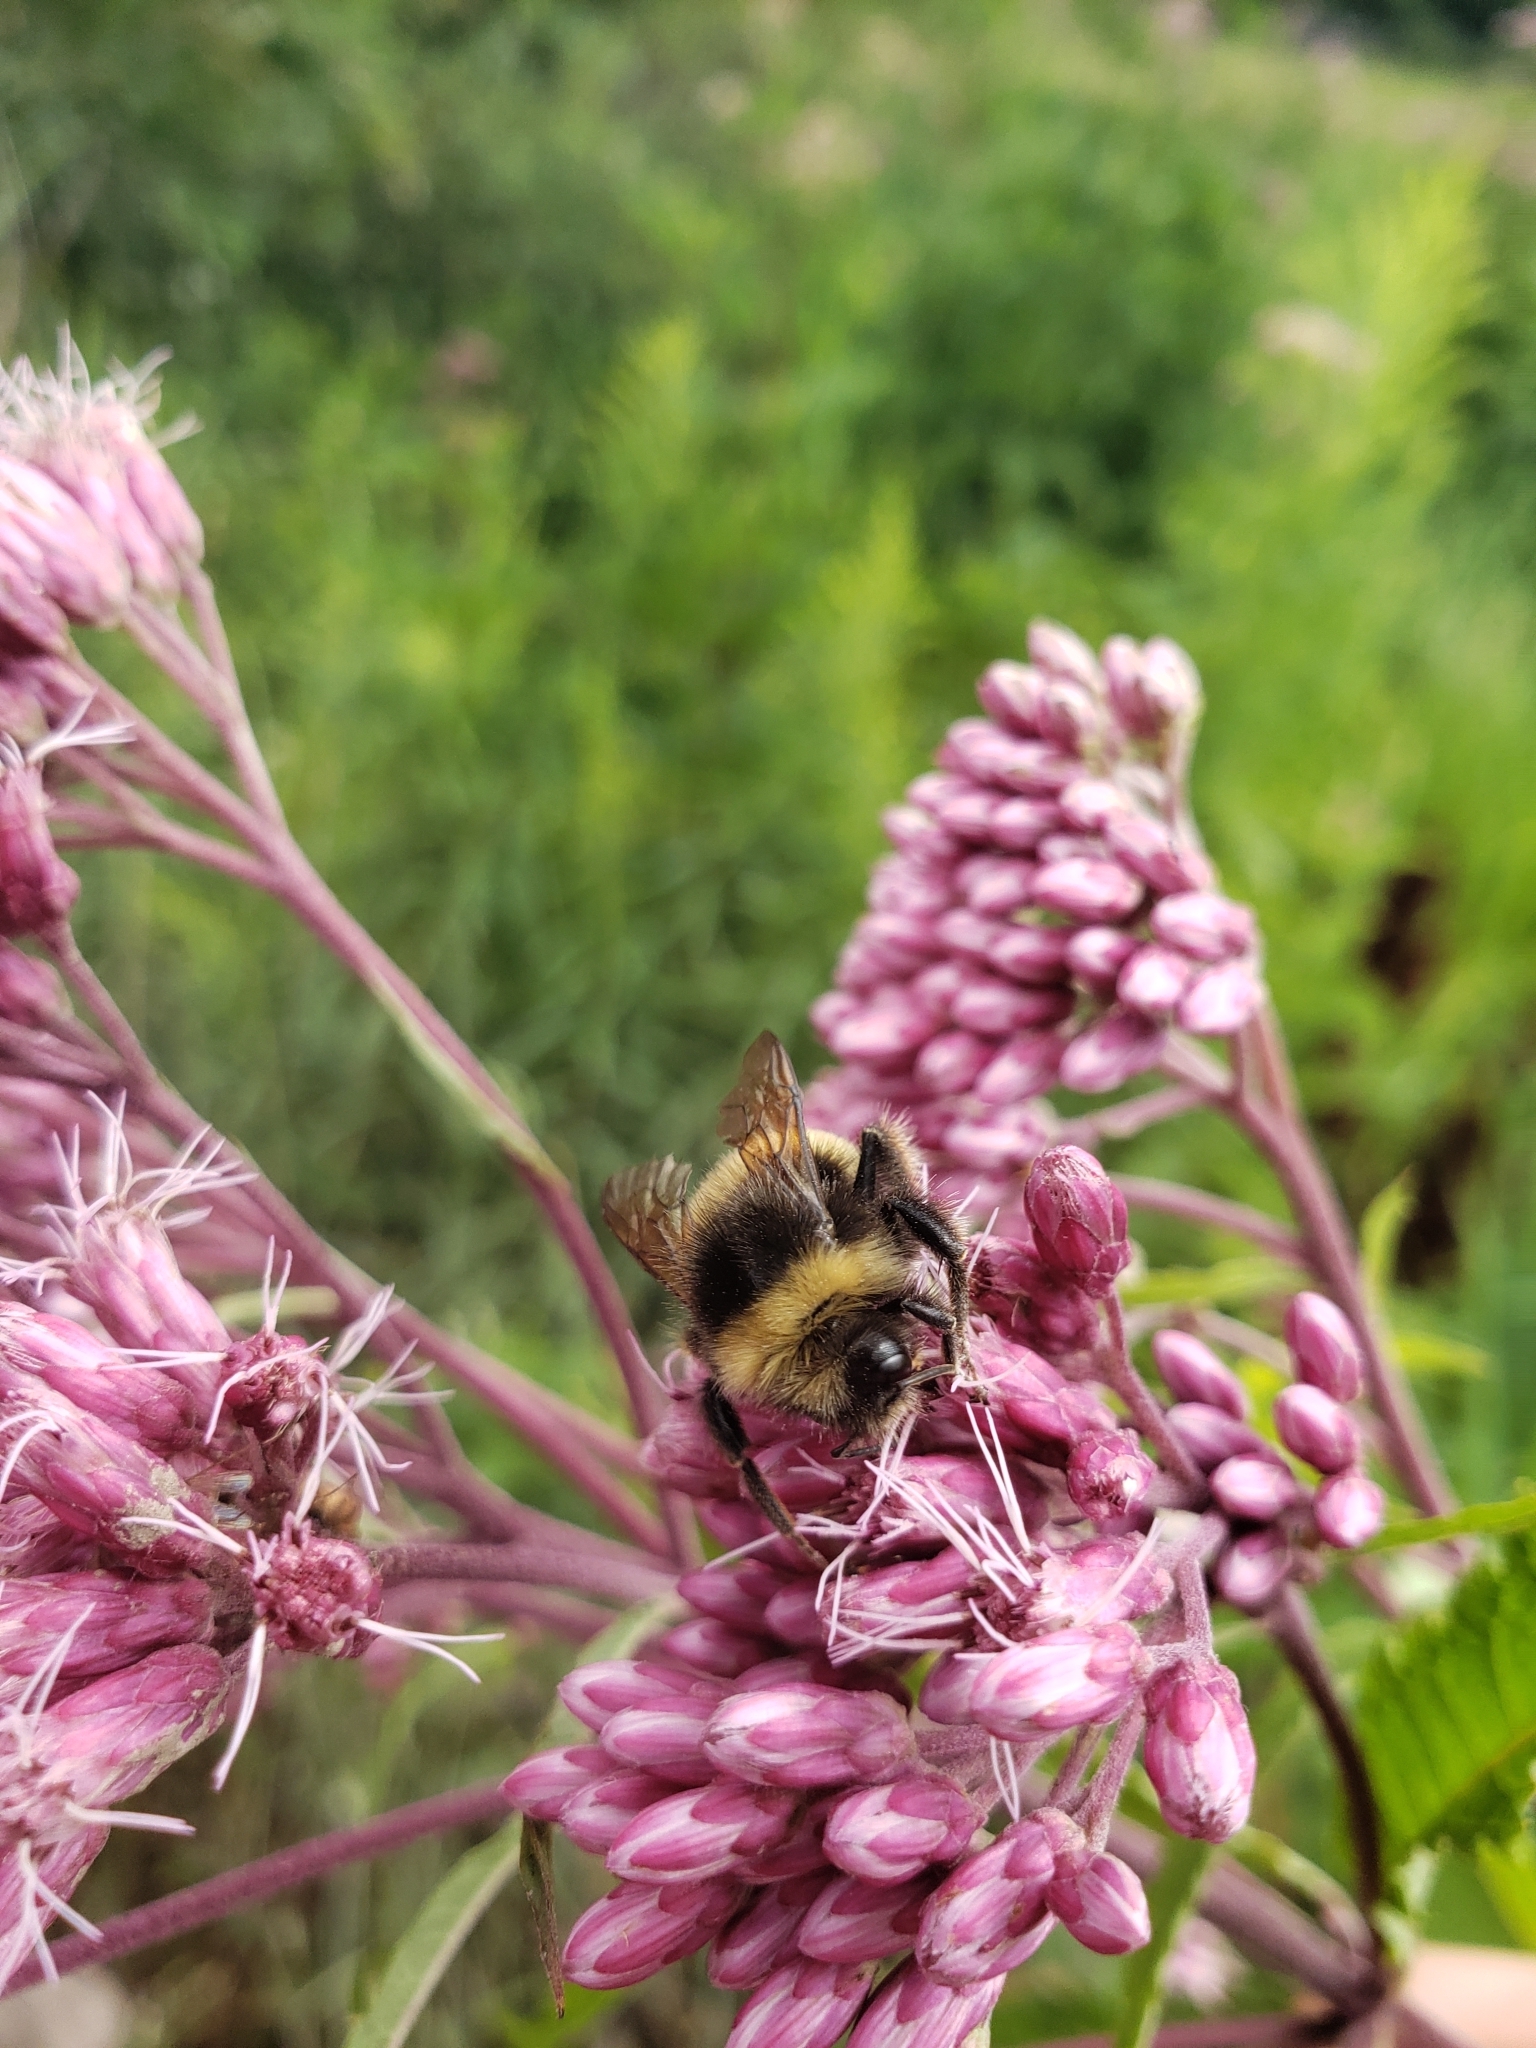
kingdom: Animalia
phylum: Arthropoda
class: Insecta
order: Hymenoptera
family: Apidae
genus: Bombus
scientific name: Bombus terricola
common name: Yellow-banded bumble bee
